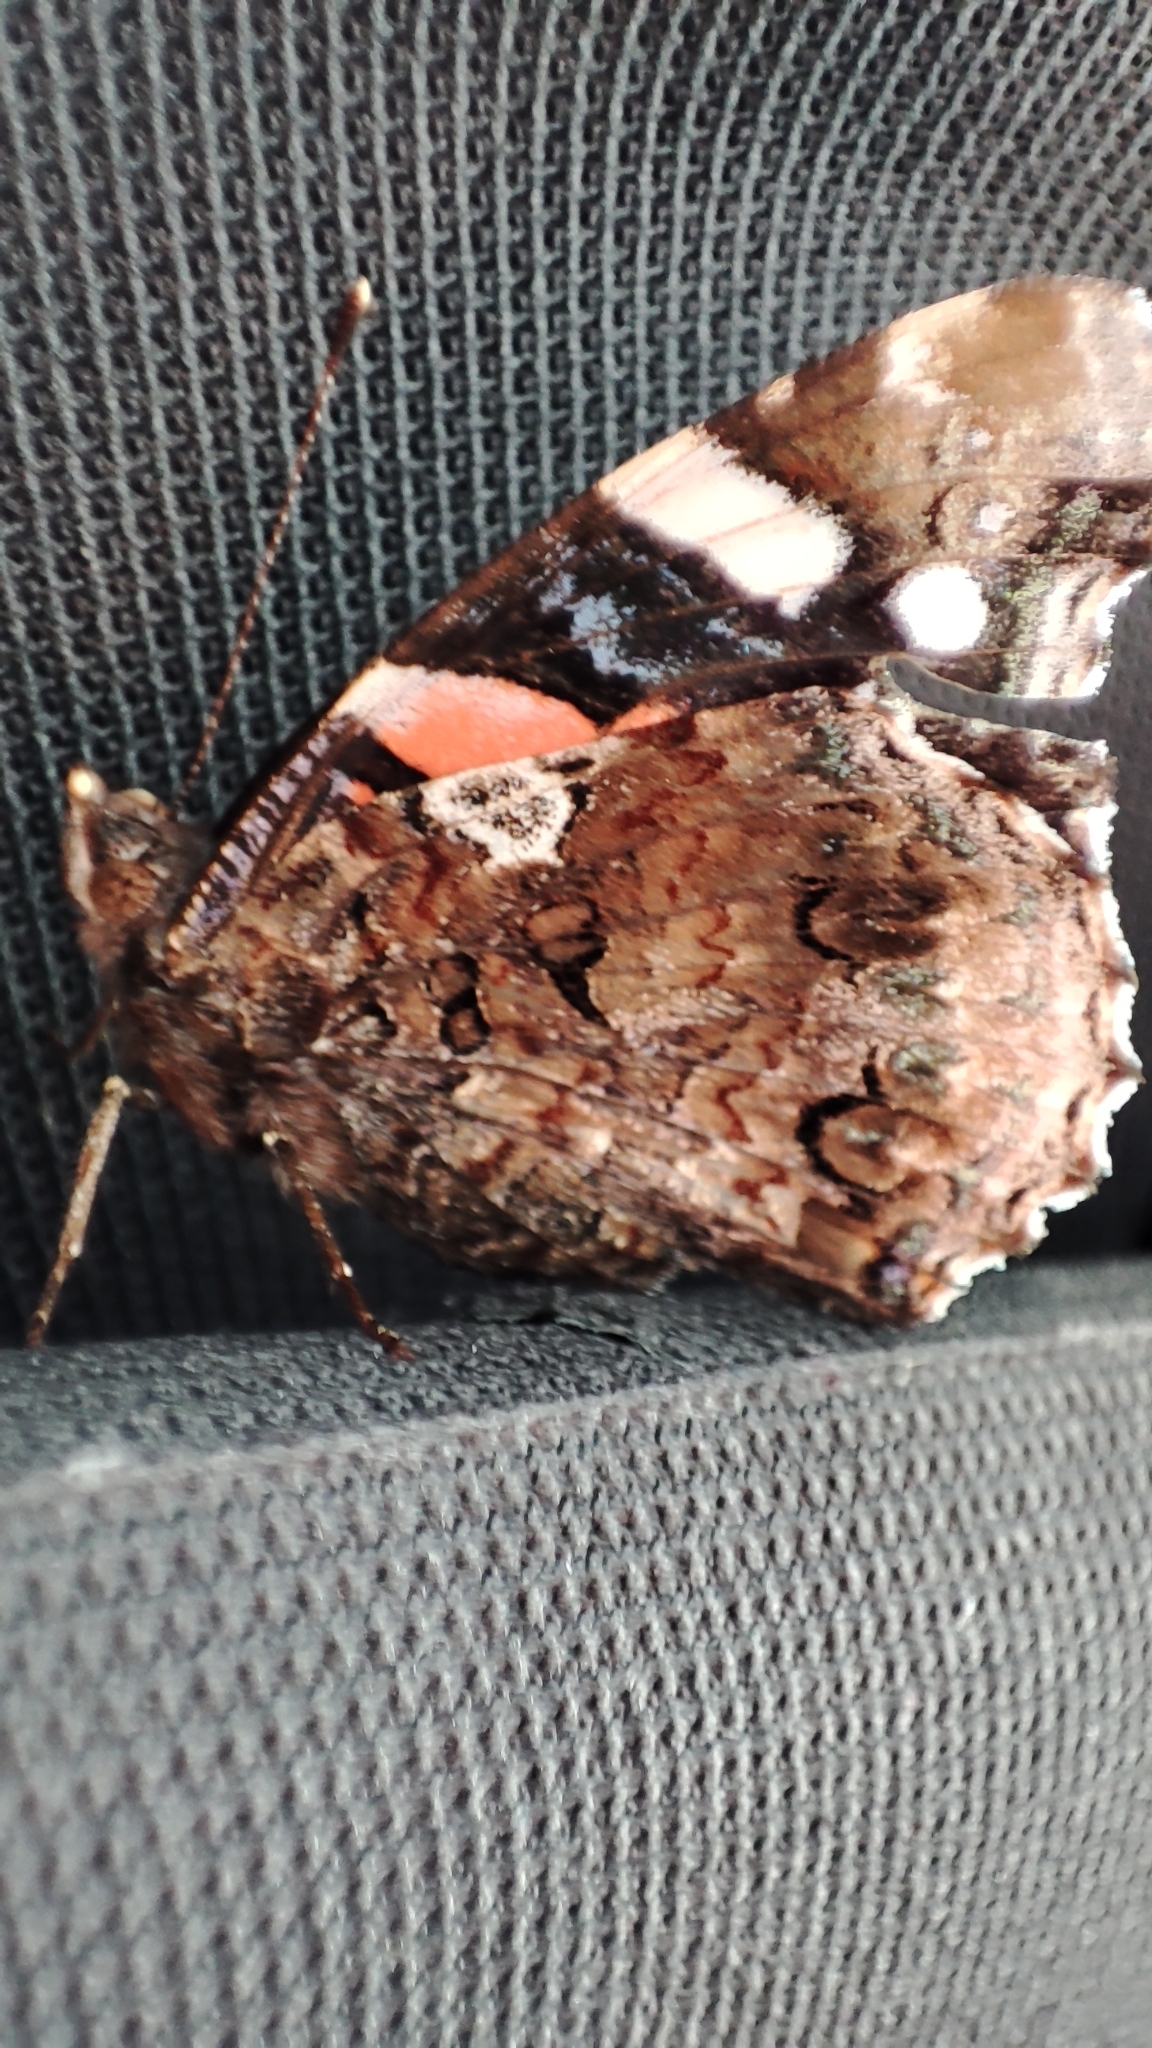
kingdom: Animalia
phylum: Arthropoda
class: Insecta
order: Lepidoptera
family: Nymphalidae
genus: Vanessa
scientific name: Vanessa atalanta
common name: Red admiral
